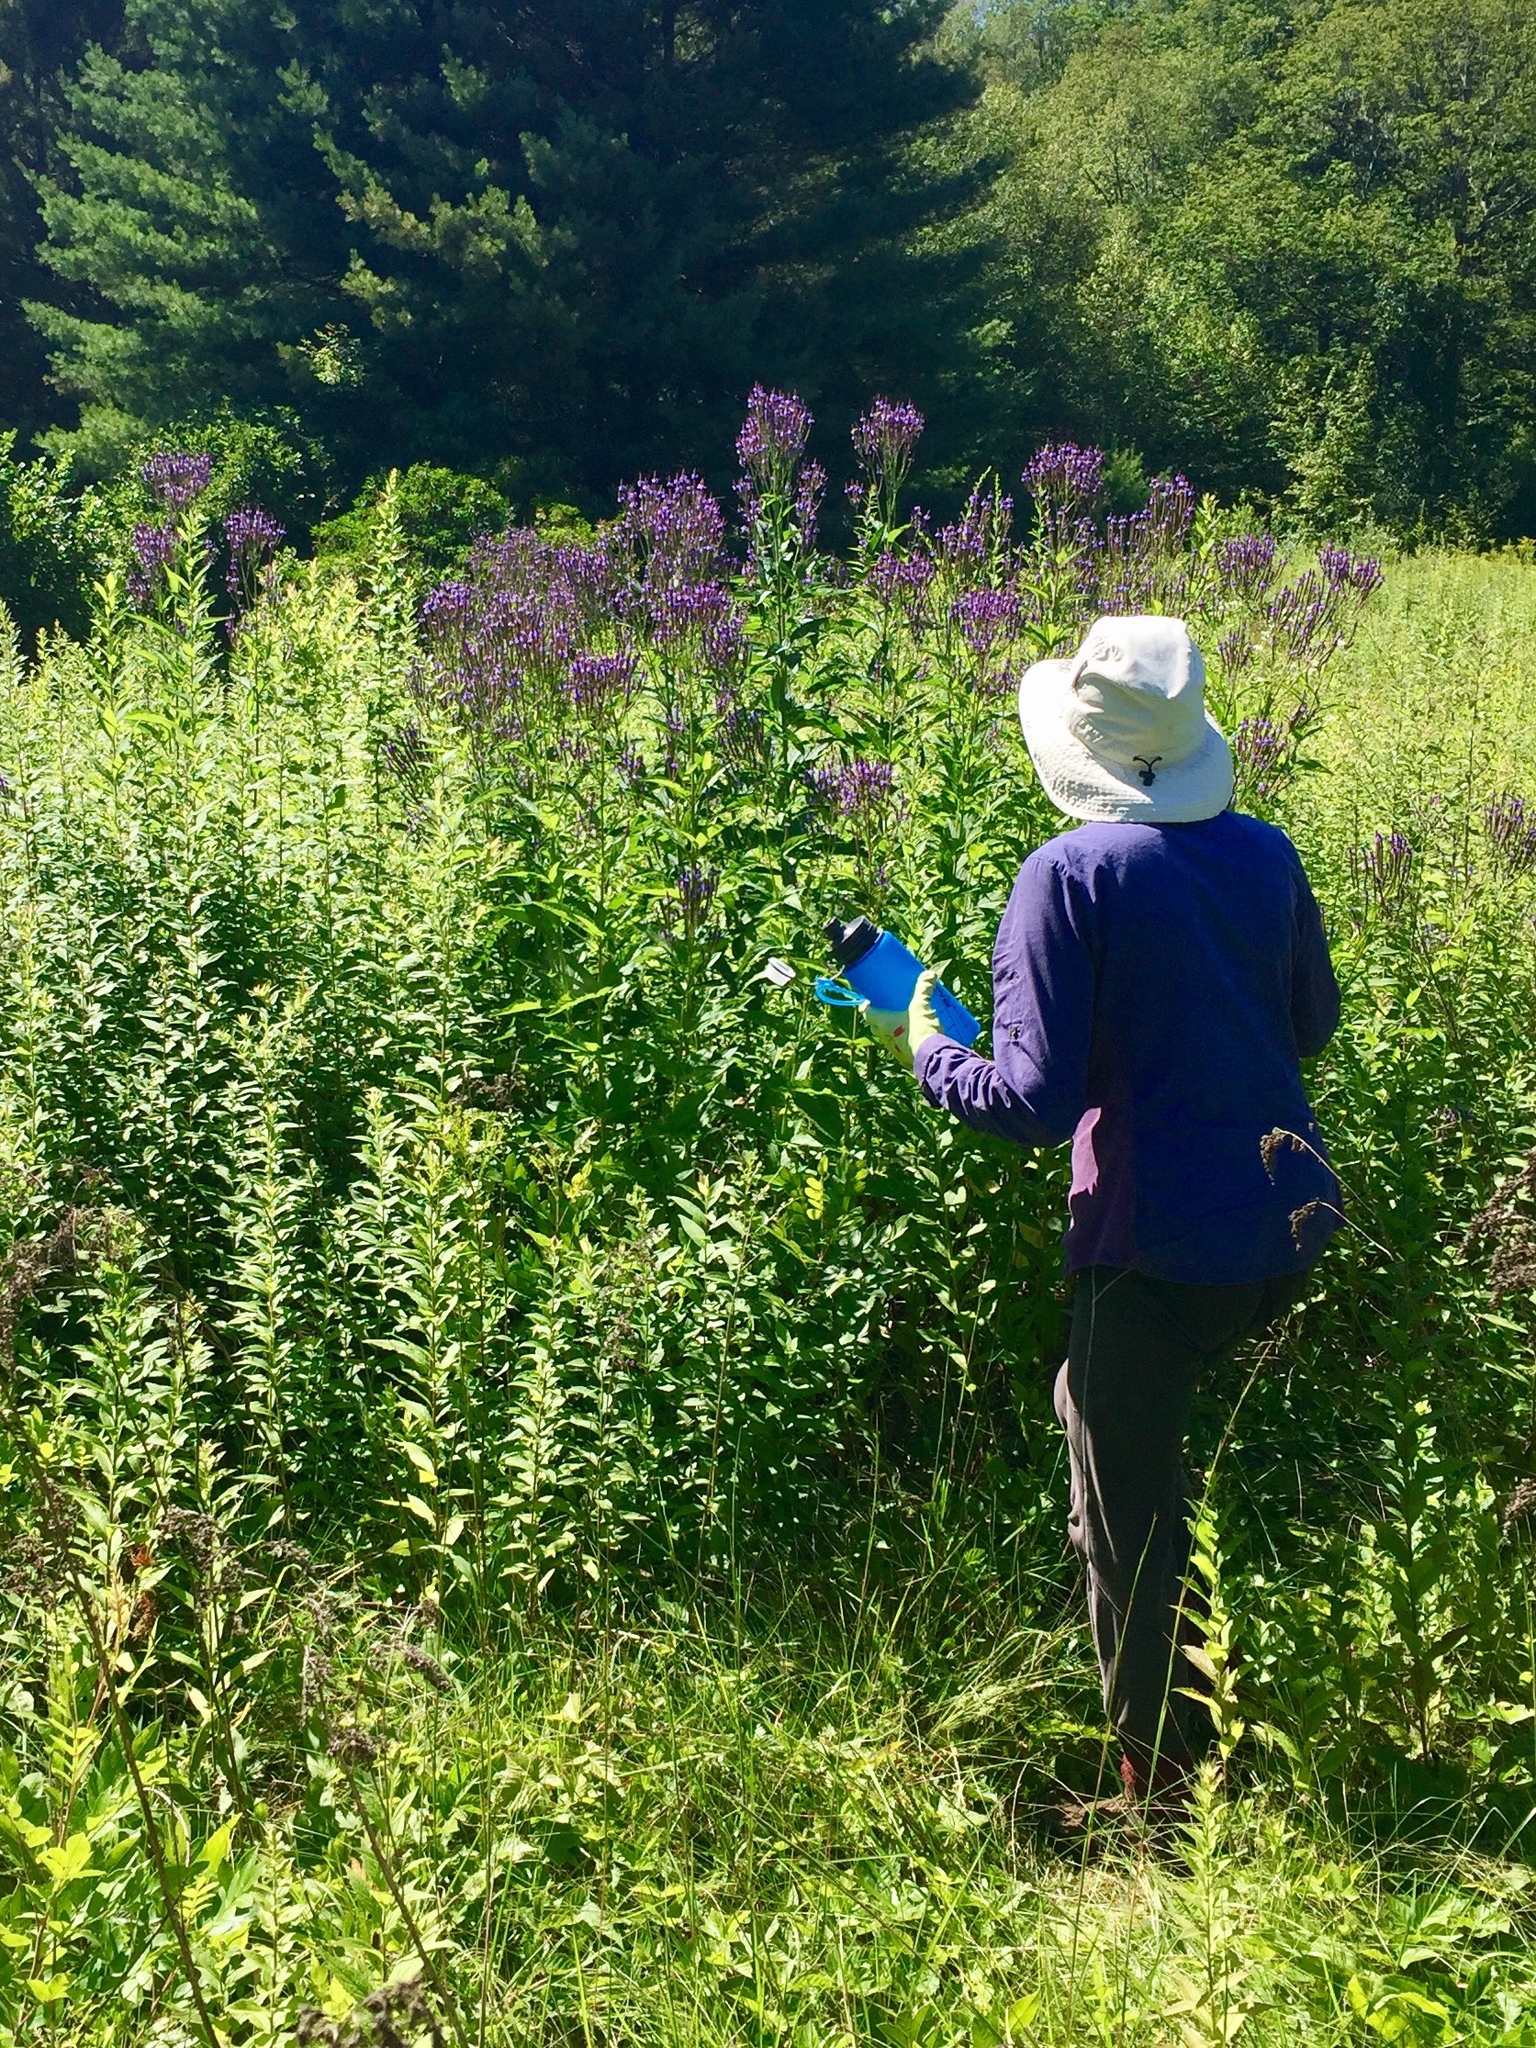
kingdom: Plantae
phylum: Tracheophyta
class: Magnoliopsida
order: Lamiales
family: Verbenaceae
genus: Verbena
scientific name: Verbena hastata
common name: American blue vervain
